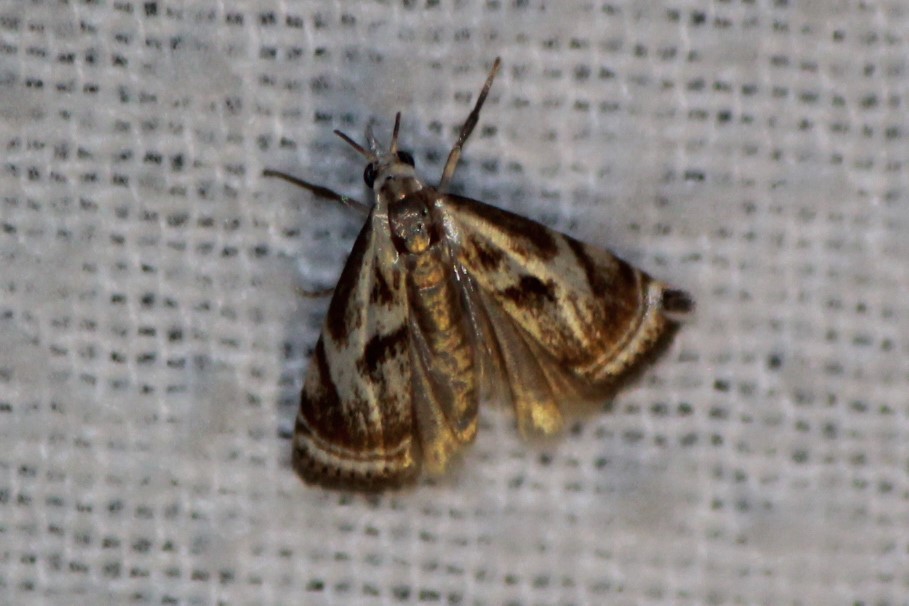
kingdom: Animalia
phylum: Arthropoda
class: Insecta
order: Lepidoptera
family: Crambidae
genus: Microcrambus
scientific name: Microcrambus elegans
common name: Elegant grass-veneer
